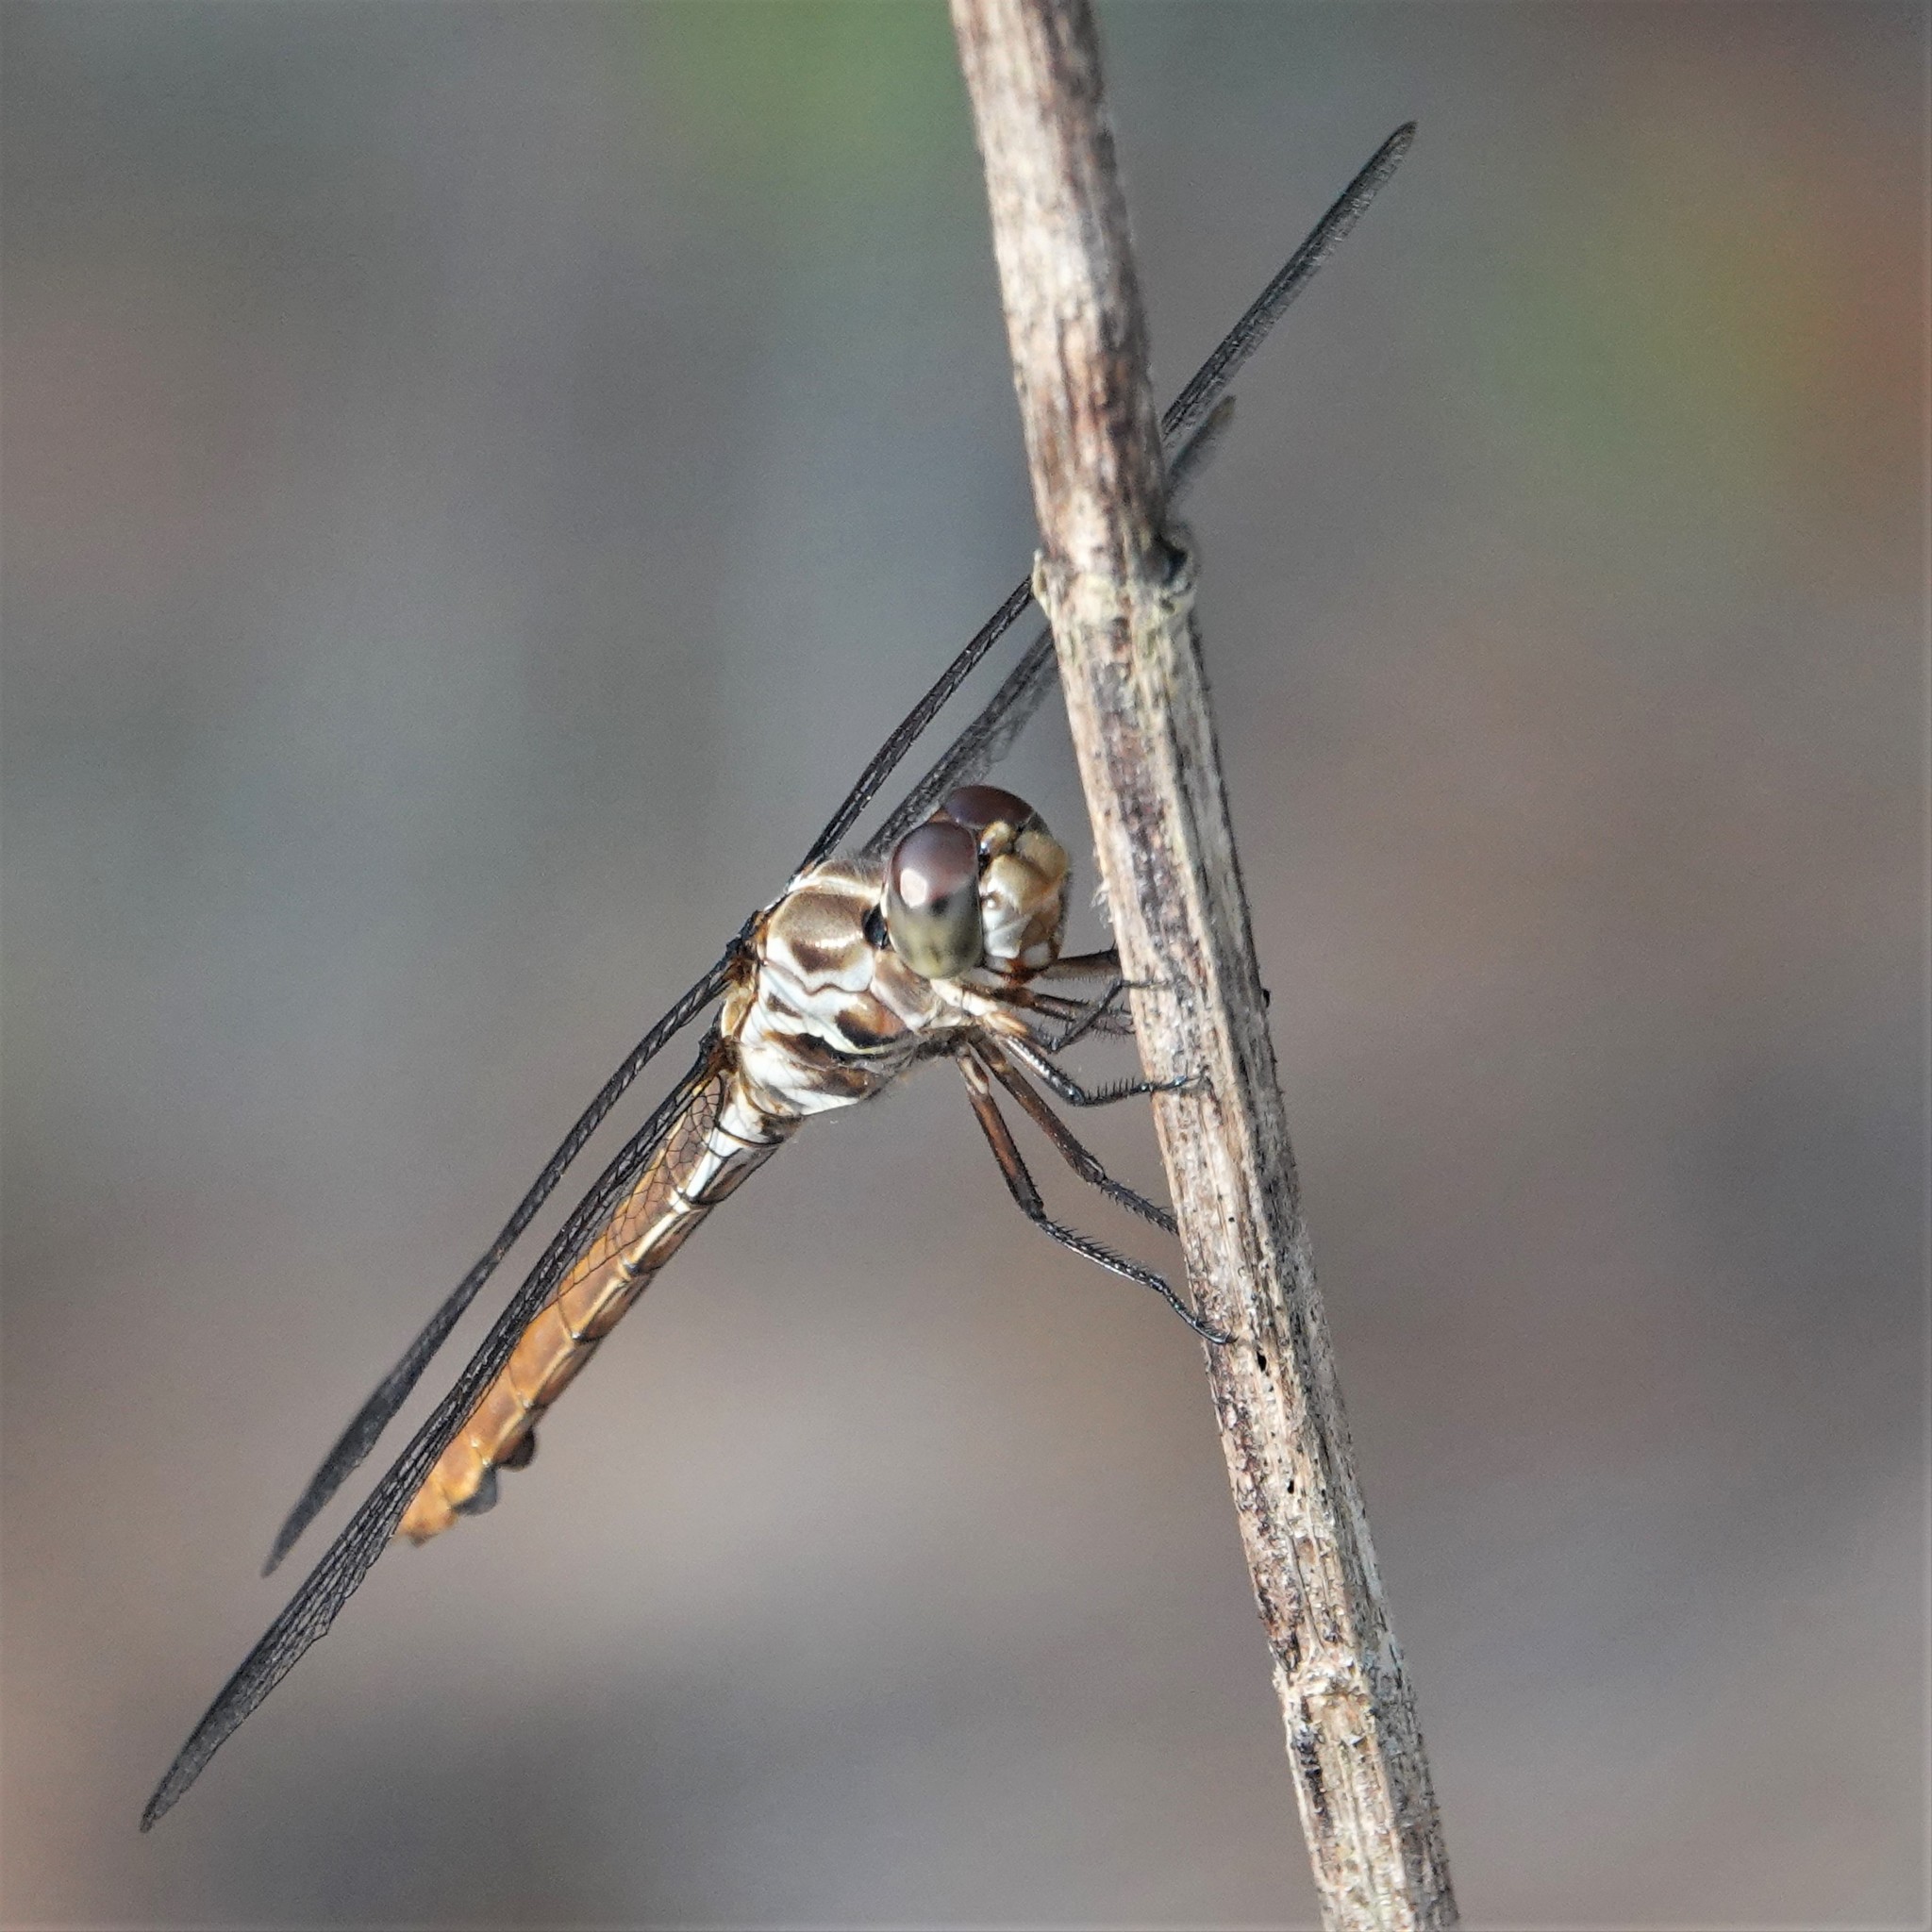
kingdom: Animalia
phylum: Arthropoda
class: Insecta
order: Odonata
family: Libellulidae
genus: Orthemis
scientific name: Orthemis ferruginea
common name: Roseate skimmer
